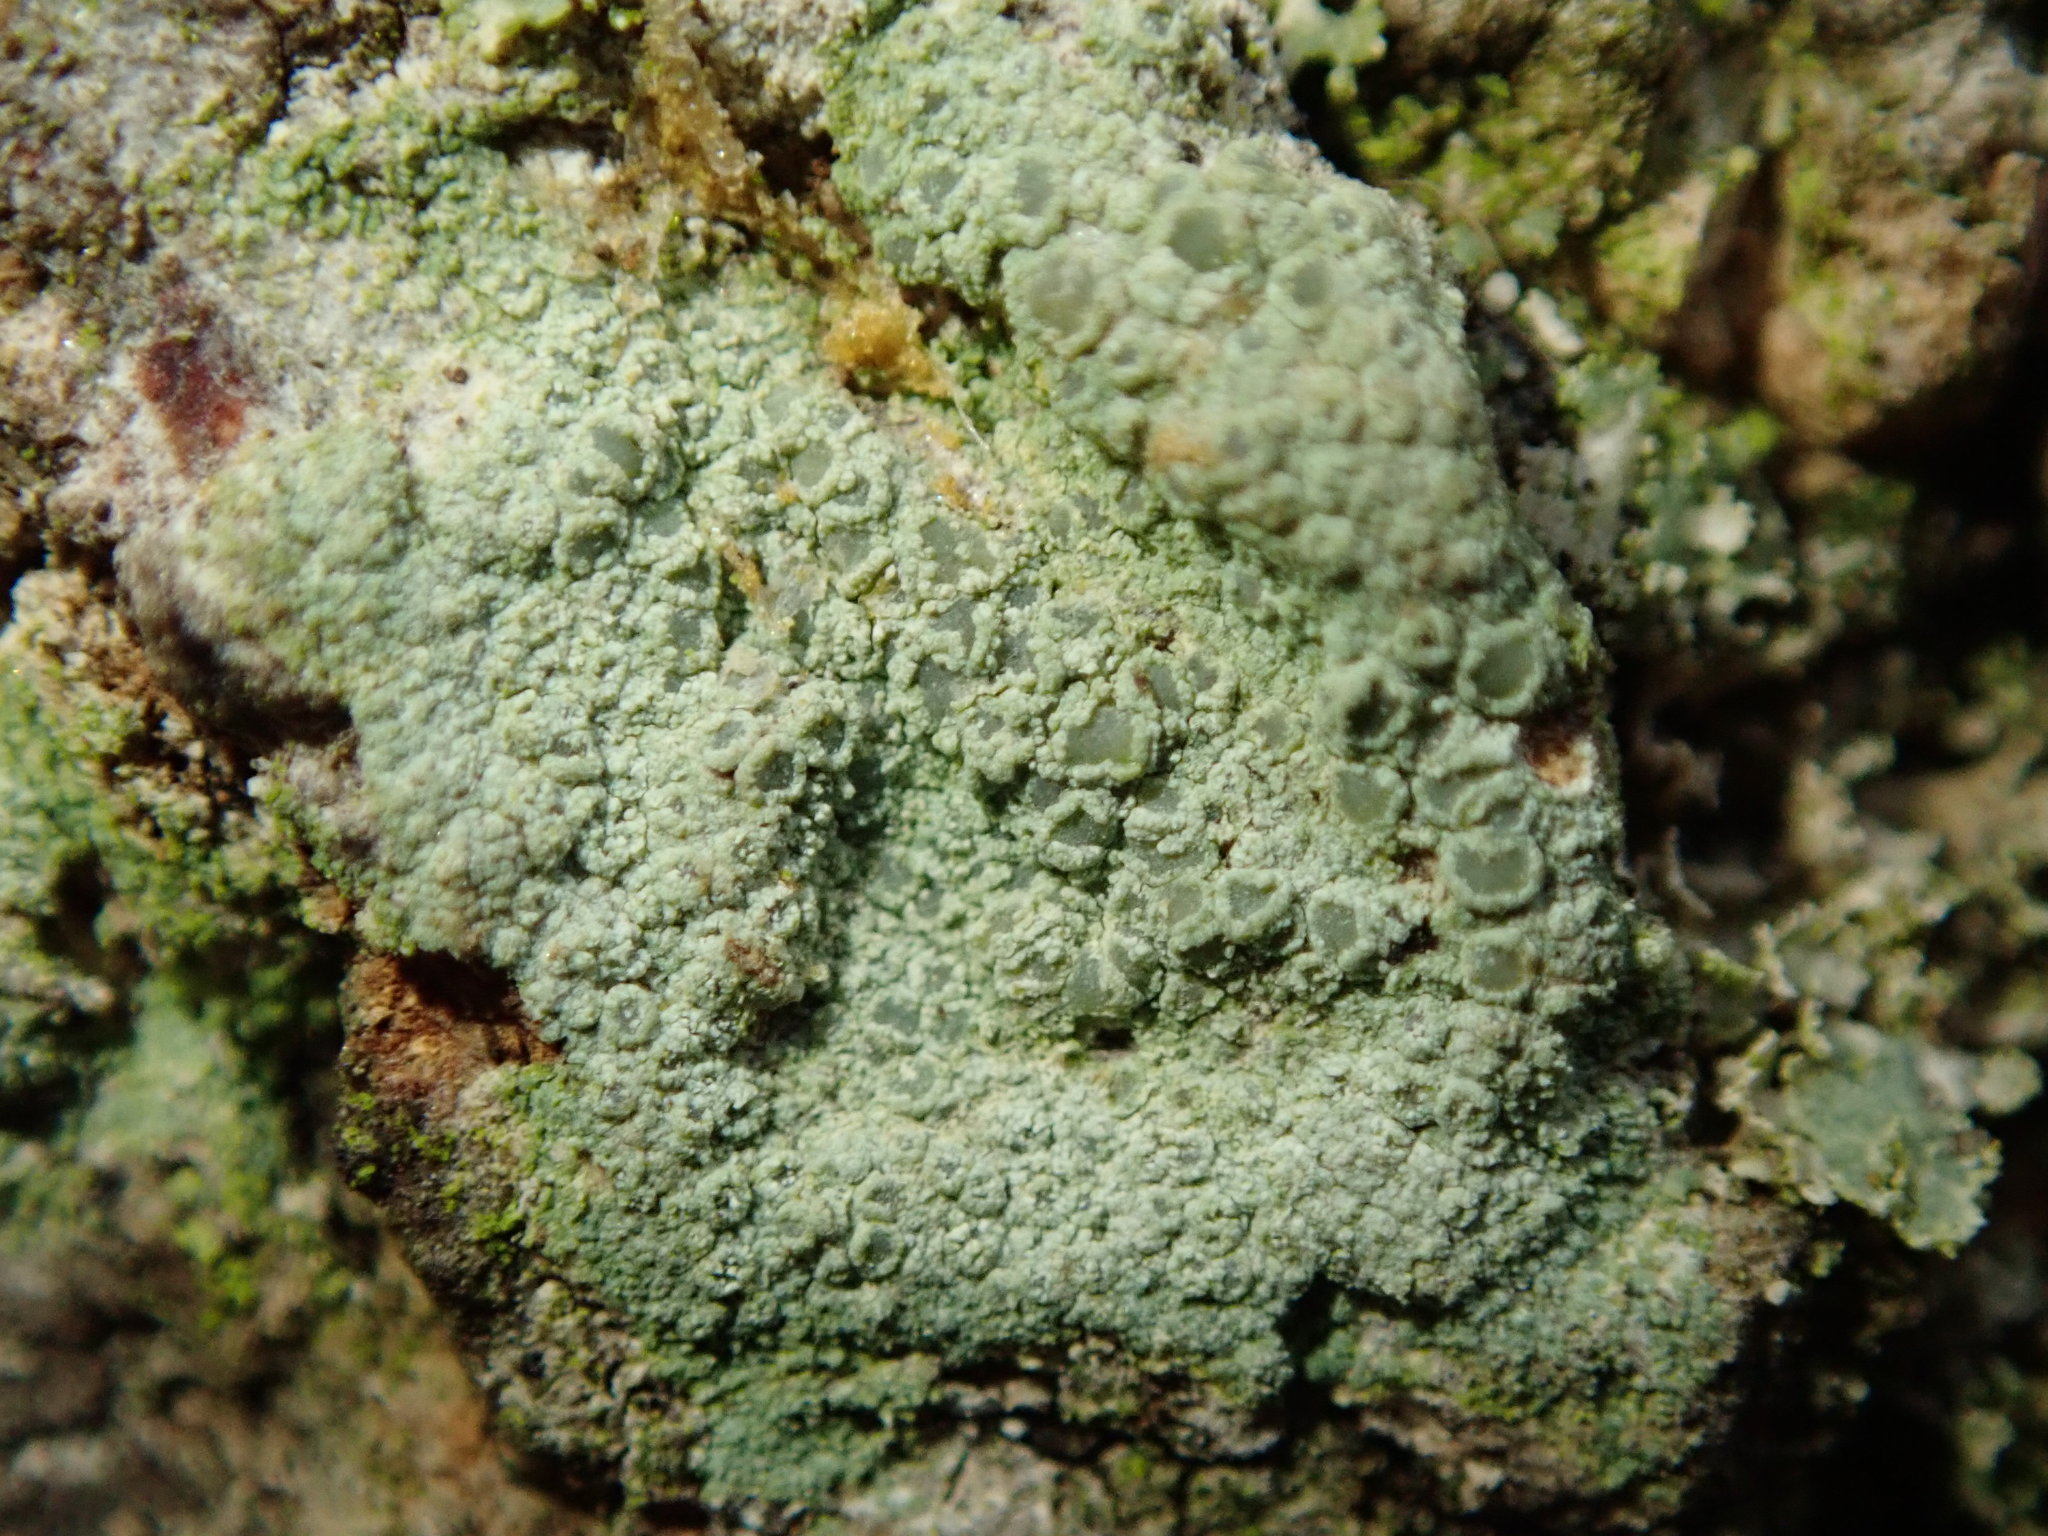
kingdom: Fungi
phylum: Ascomycota
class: Lecanoromycetes
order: Lecanorales
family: Lecanoraceae
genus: Lecanora
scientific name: Lecanora strobilina
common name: Mealy rim-lichen
